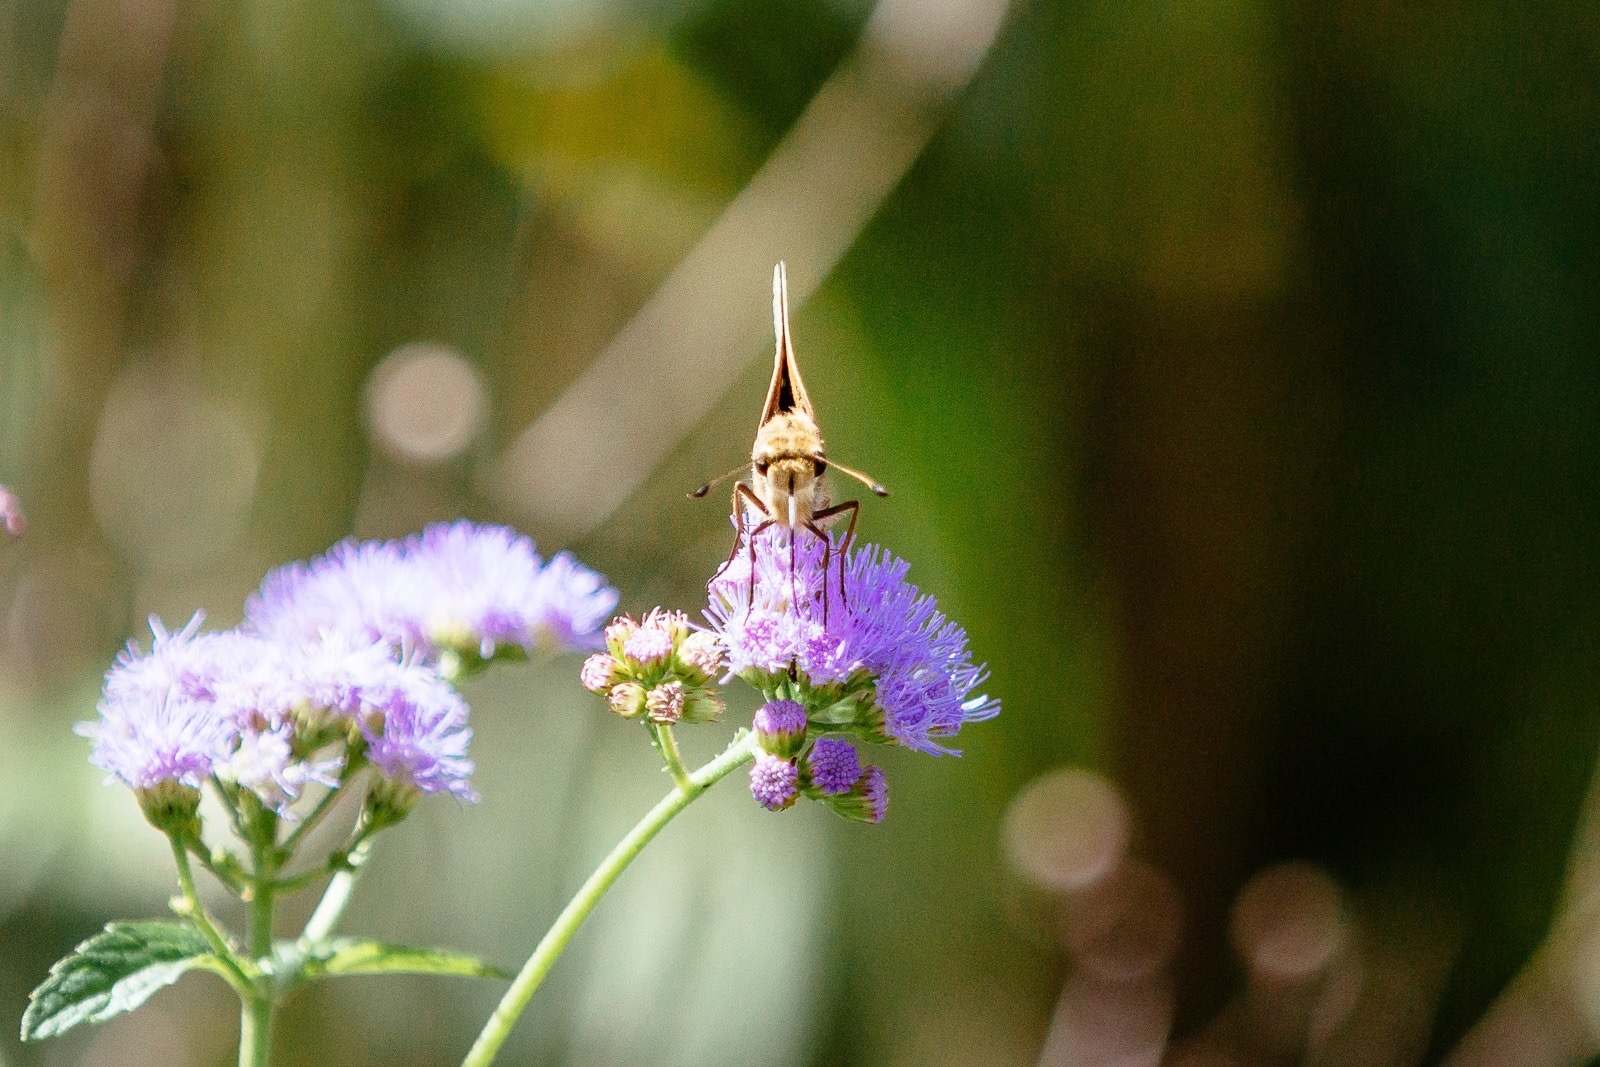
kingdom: Animalia
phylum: Arthropoda
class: Insecta
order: Lepidoptera
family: Hesperiidae
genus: Atalopedes
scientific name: Atalopedes
